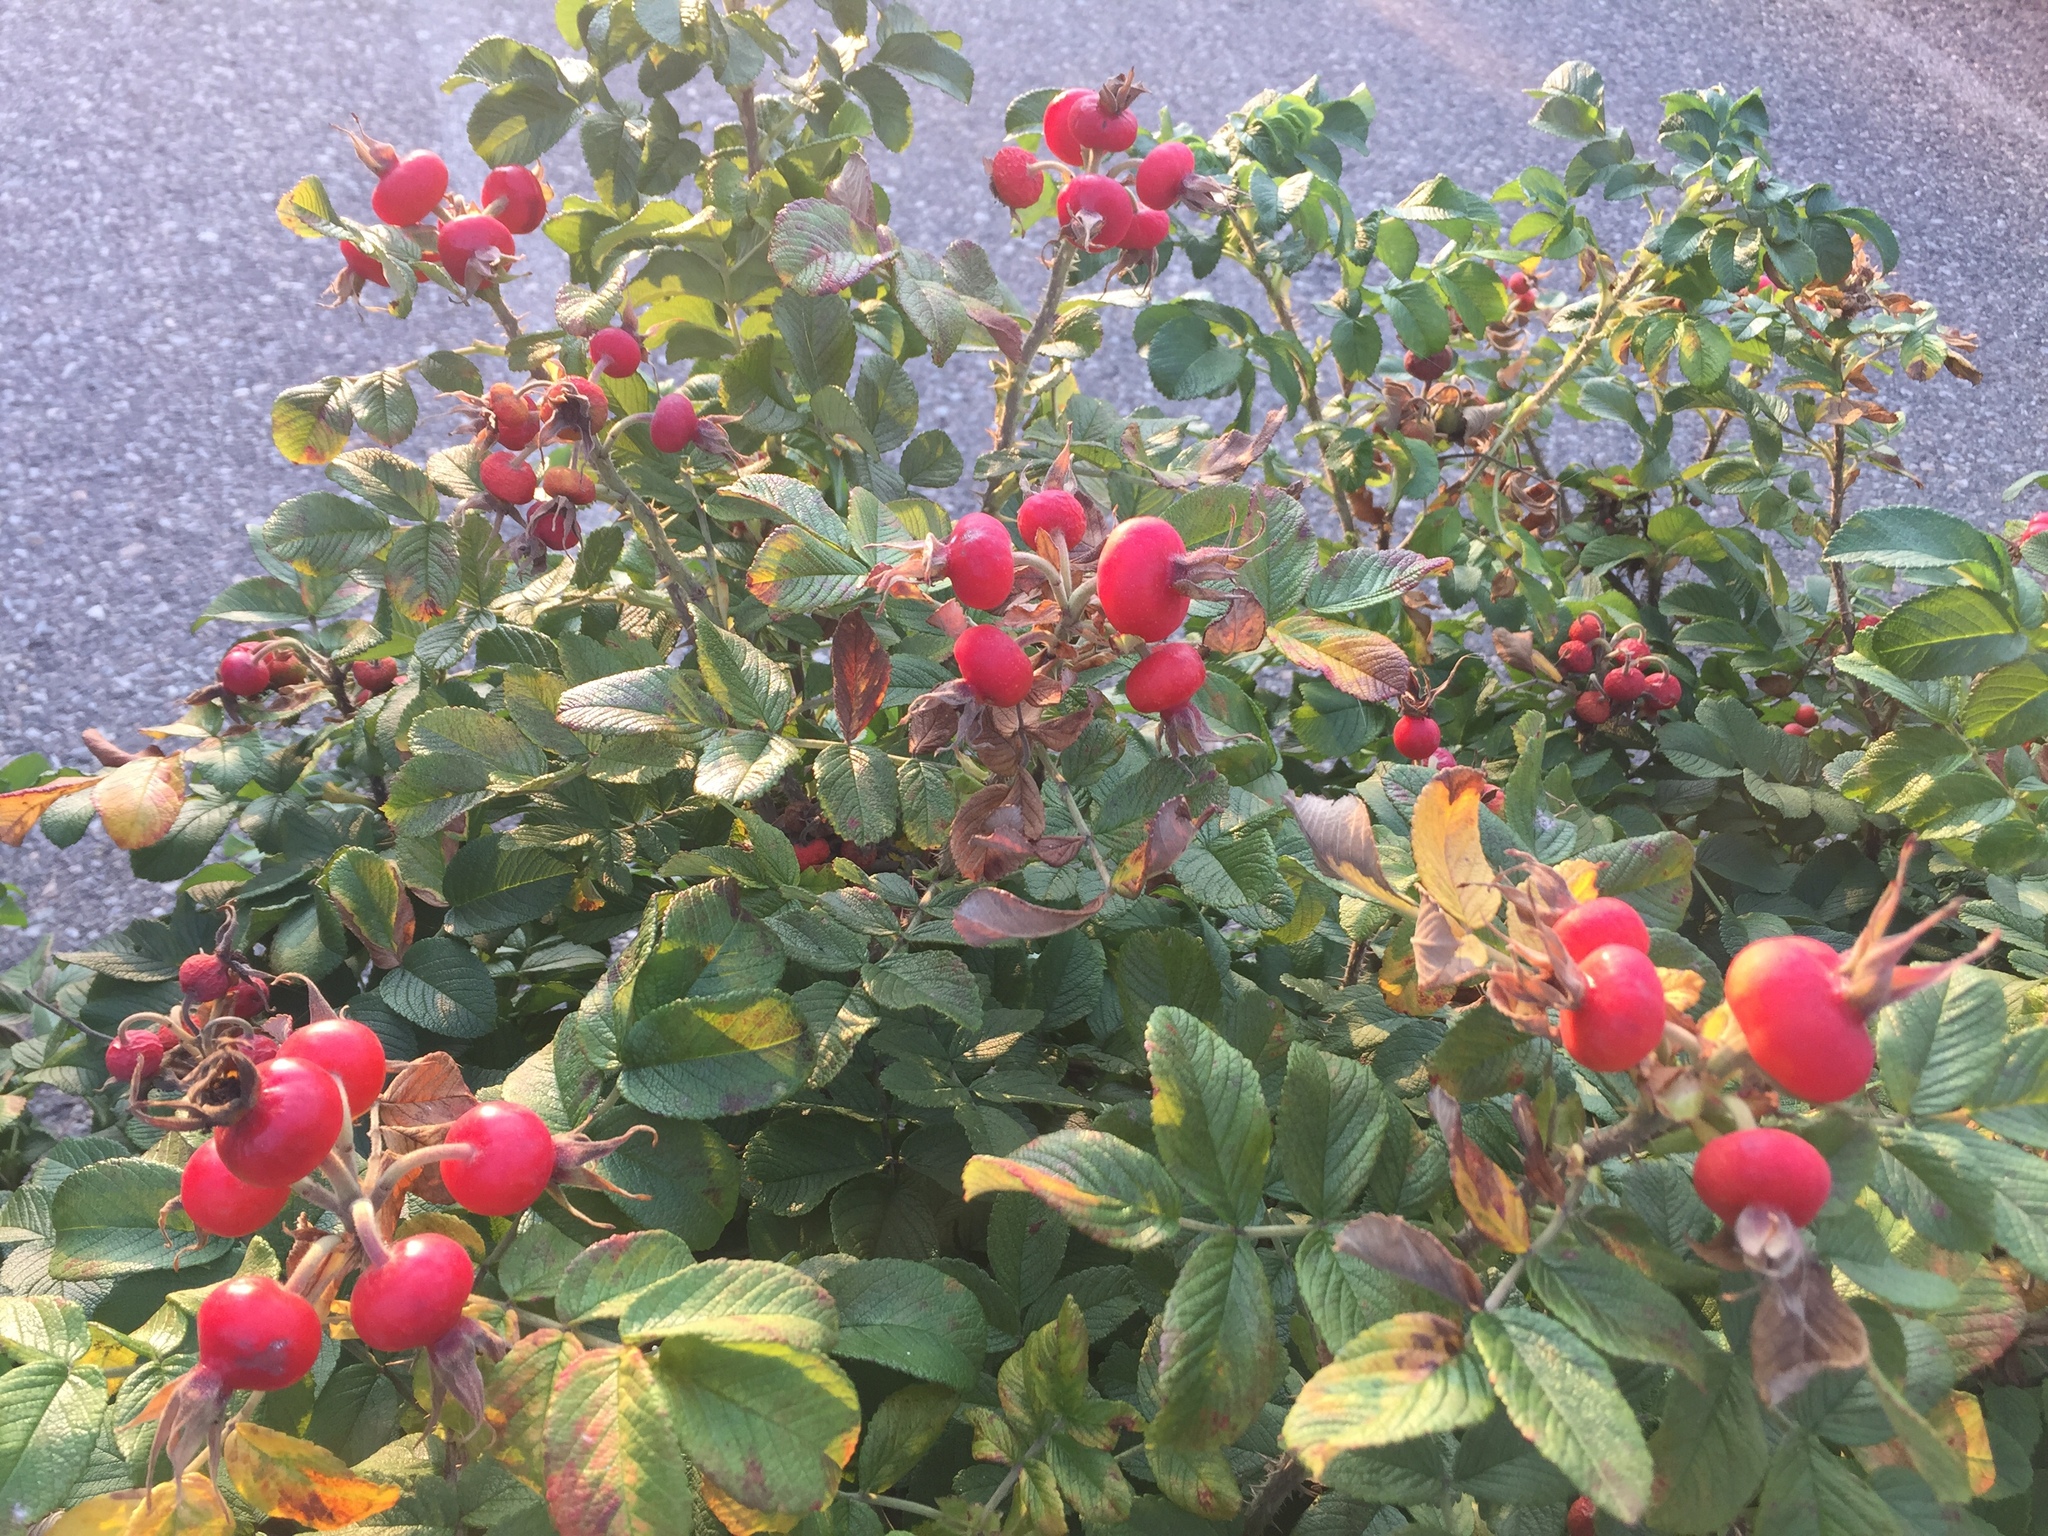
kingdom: Plantae
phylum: Tracheophyta
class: Magnoliopsida
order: Rosales
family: Rosaceae
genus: Rosa
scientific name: Rosa rugosa
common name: Japanese rose
